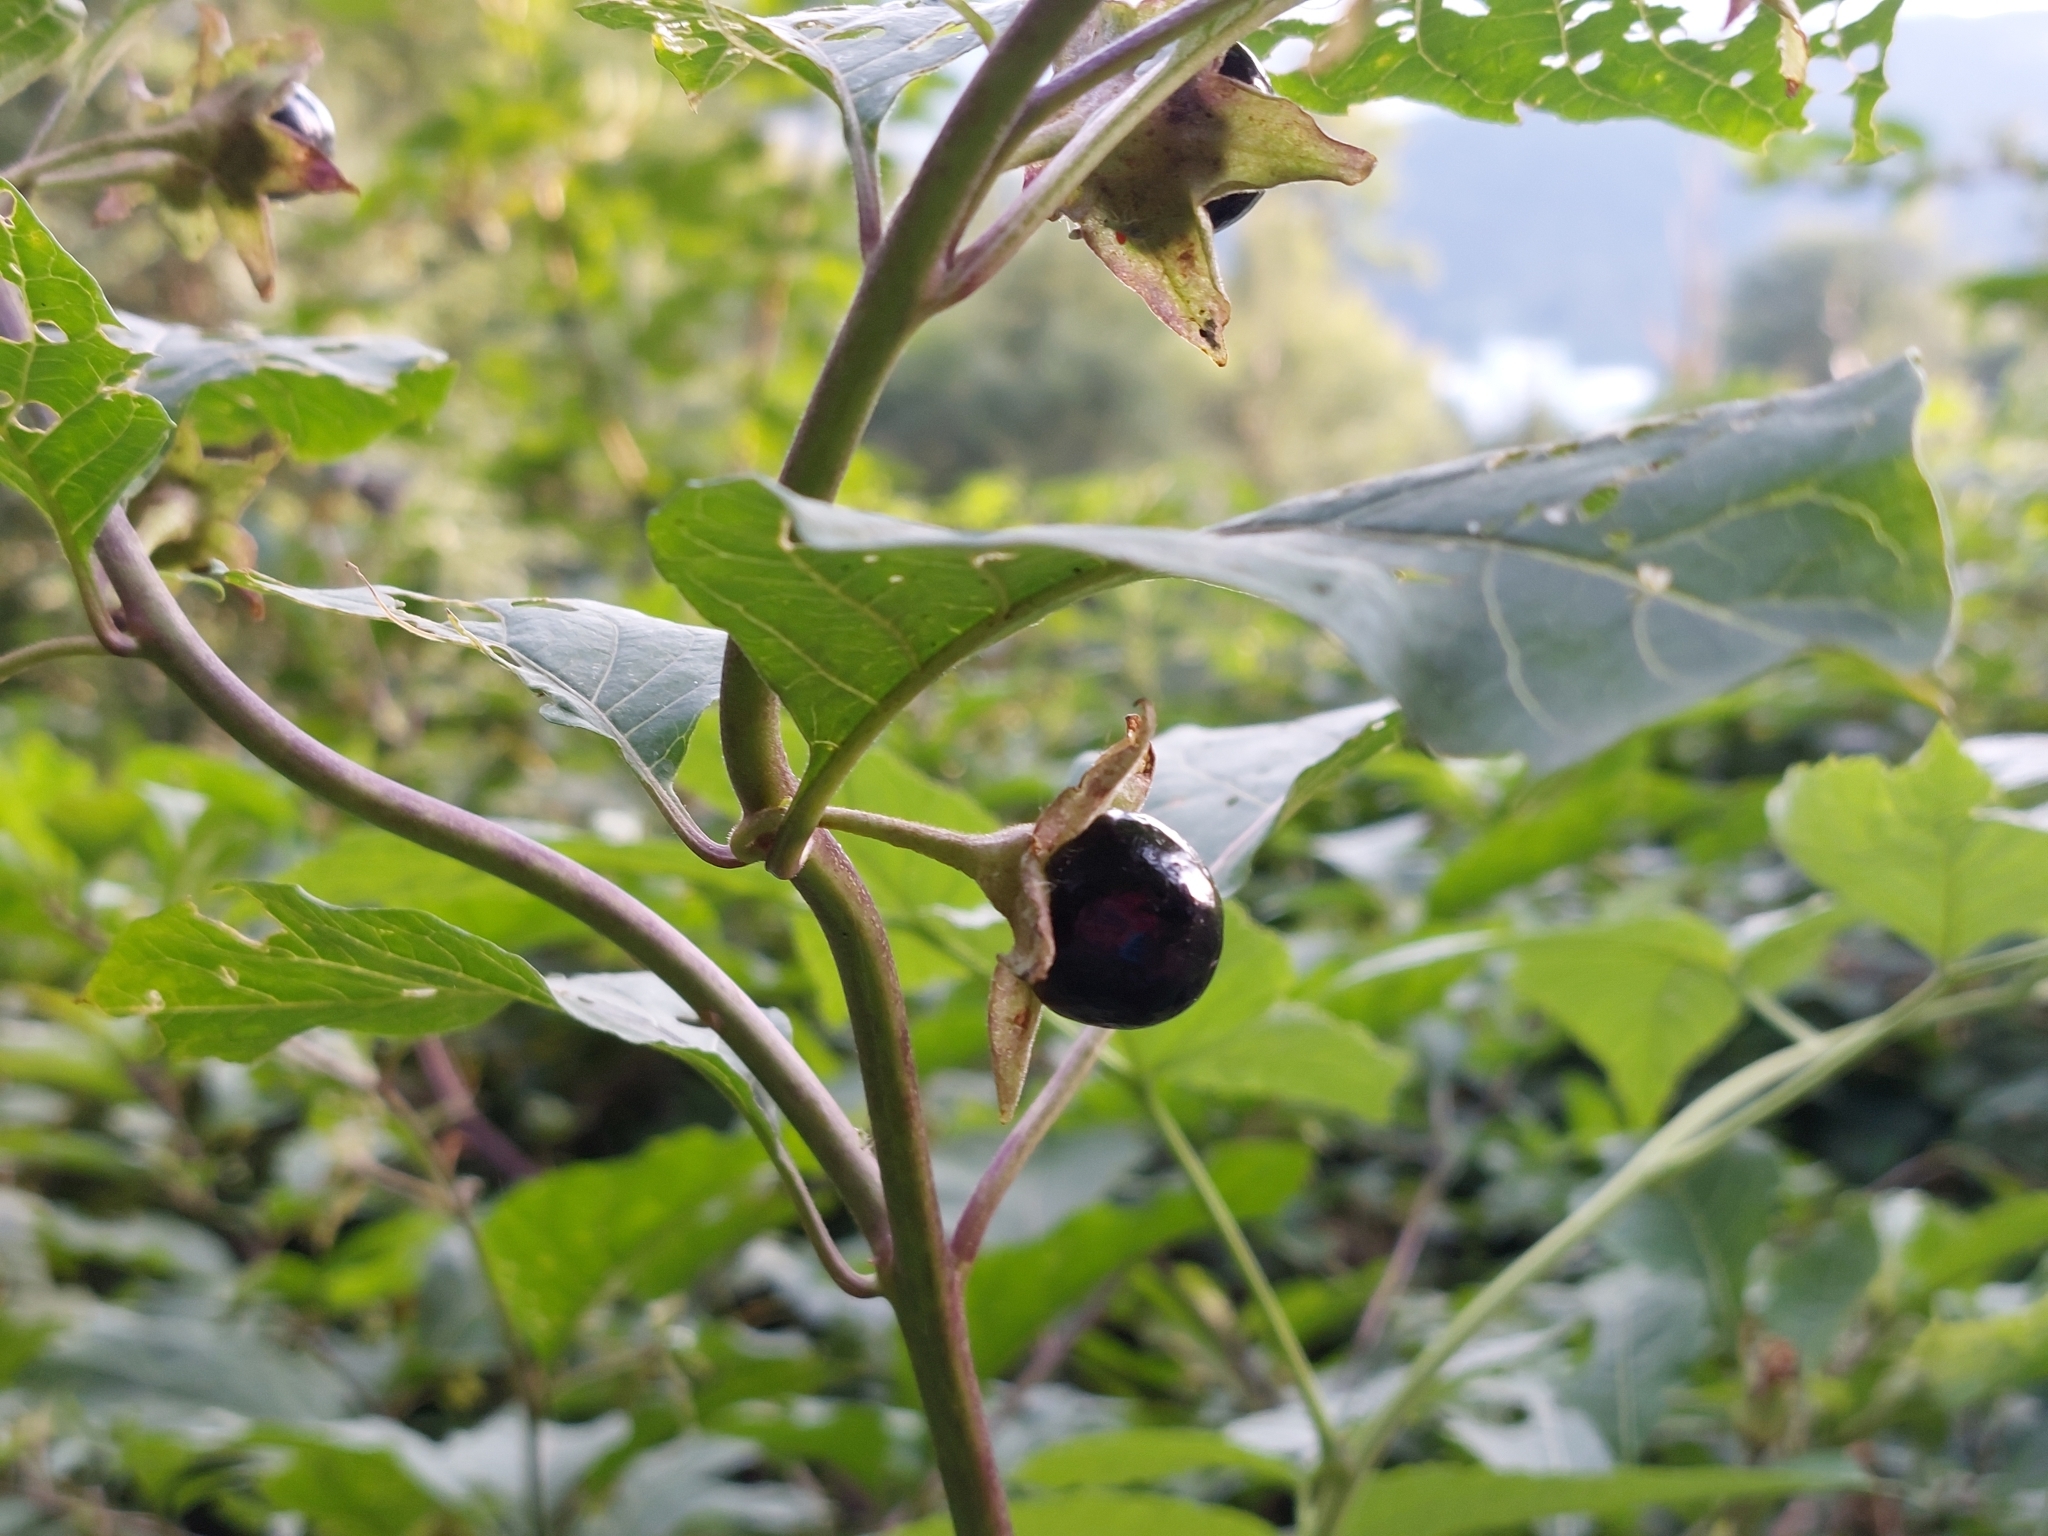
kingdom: Plantae
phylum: Tracheophyta
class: Magnoliopsida
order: Solanales
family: Solanaceae
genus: Atropa
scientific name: Atropa belladonna
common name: Deadly nightshade
